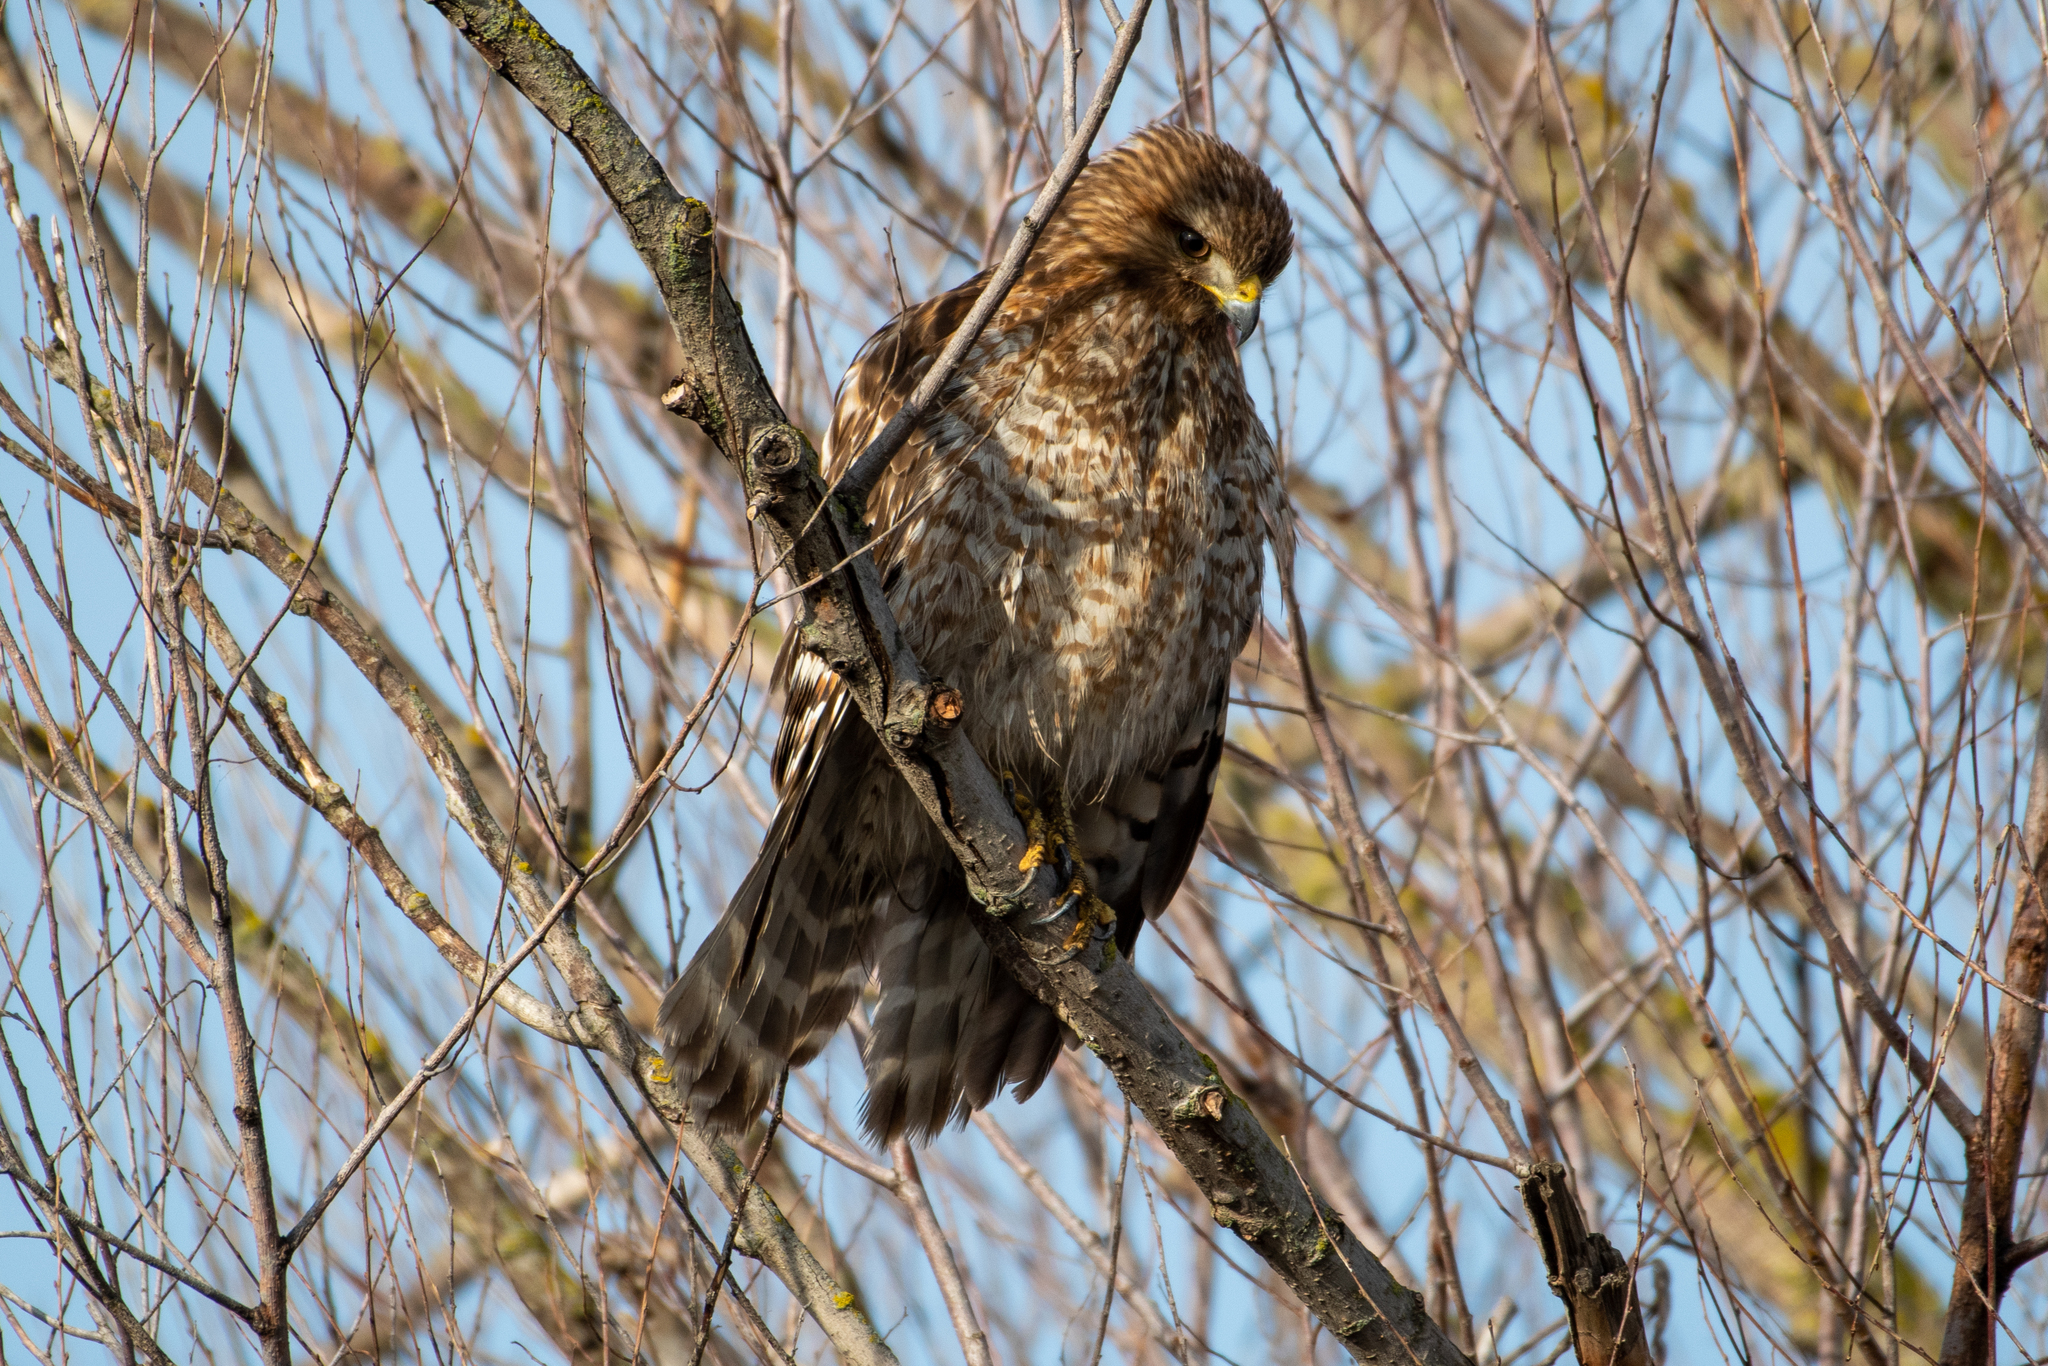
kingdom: Animalia
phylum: Chordata
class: Aves
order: Accipitriformes
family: Accipitridae
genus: Buteo
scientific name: Buteo lineatus
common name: Red-shouldered hawk
